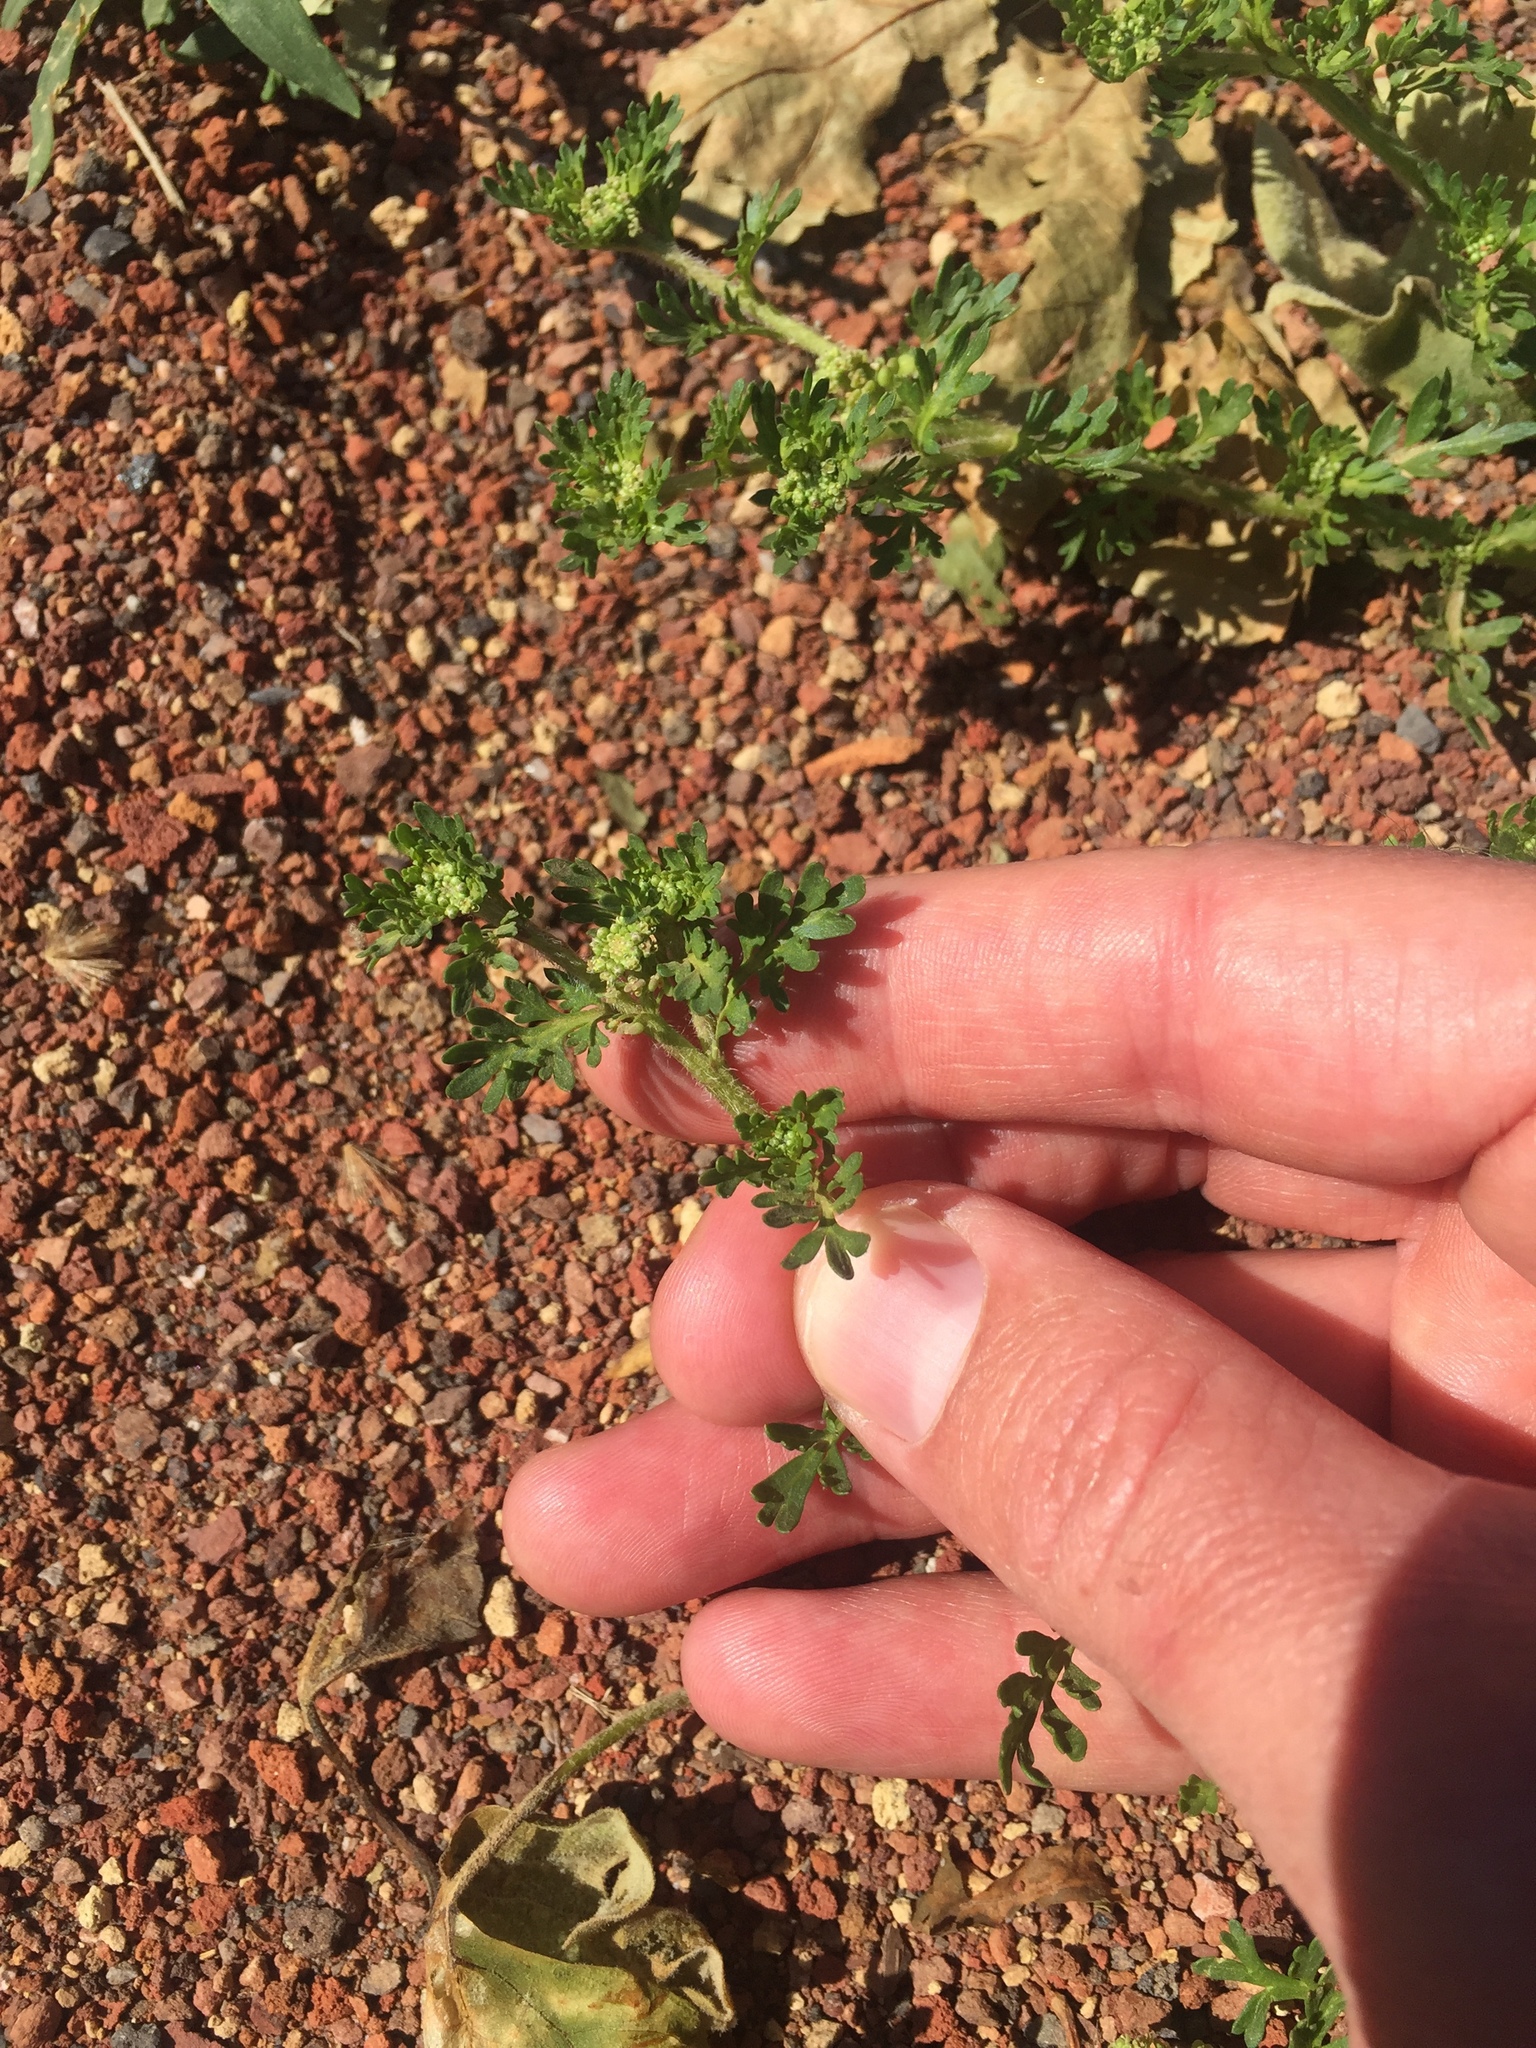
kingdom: Plantae
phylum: Tracheophyta
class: Magnoliopsida
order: Brassicales
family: Brassicaceae
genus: Lepidium
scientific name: Lepidium didymum
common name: Lesser swinecress
